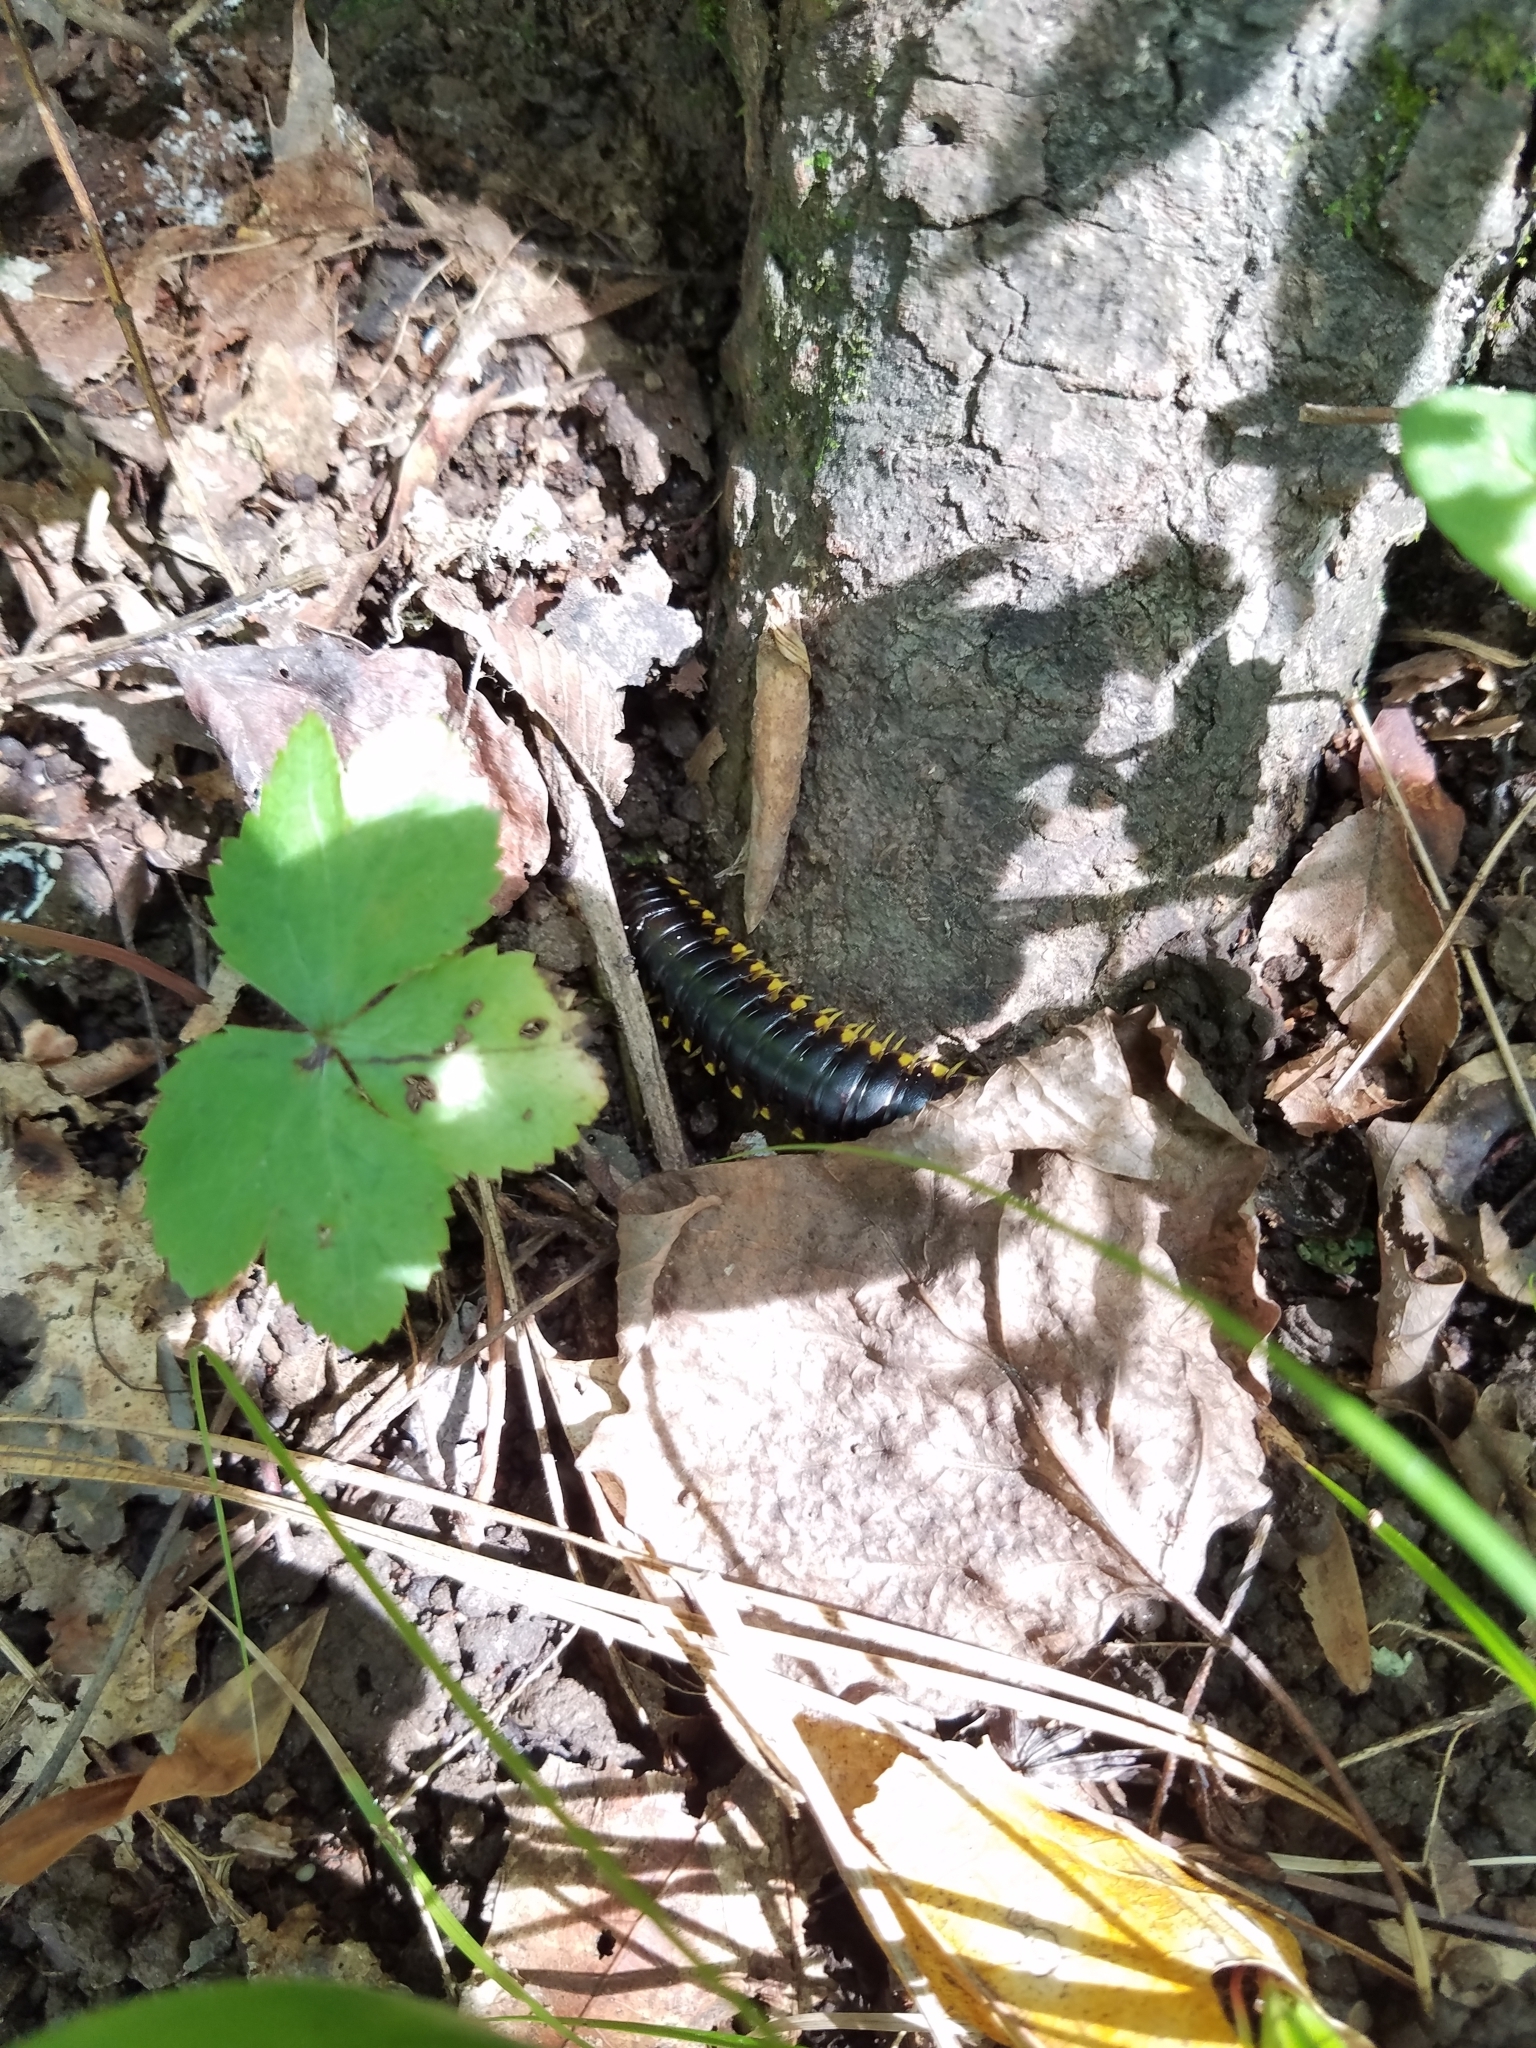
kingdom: Animalia
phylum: Arthropoda
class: Diplopoda
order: Polydesmida
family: Xystodesmidae
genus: Apheloria
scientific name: Apheloria tigana
